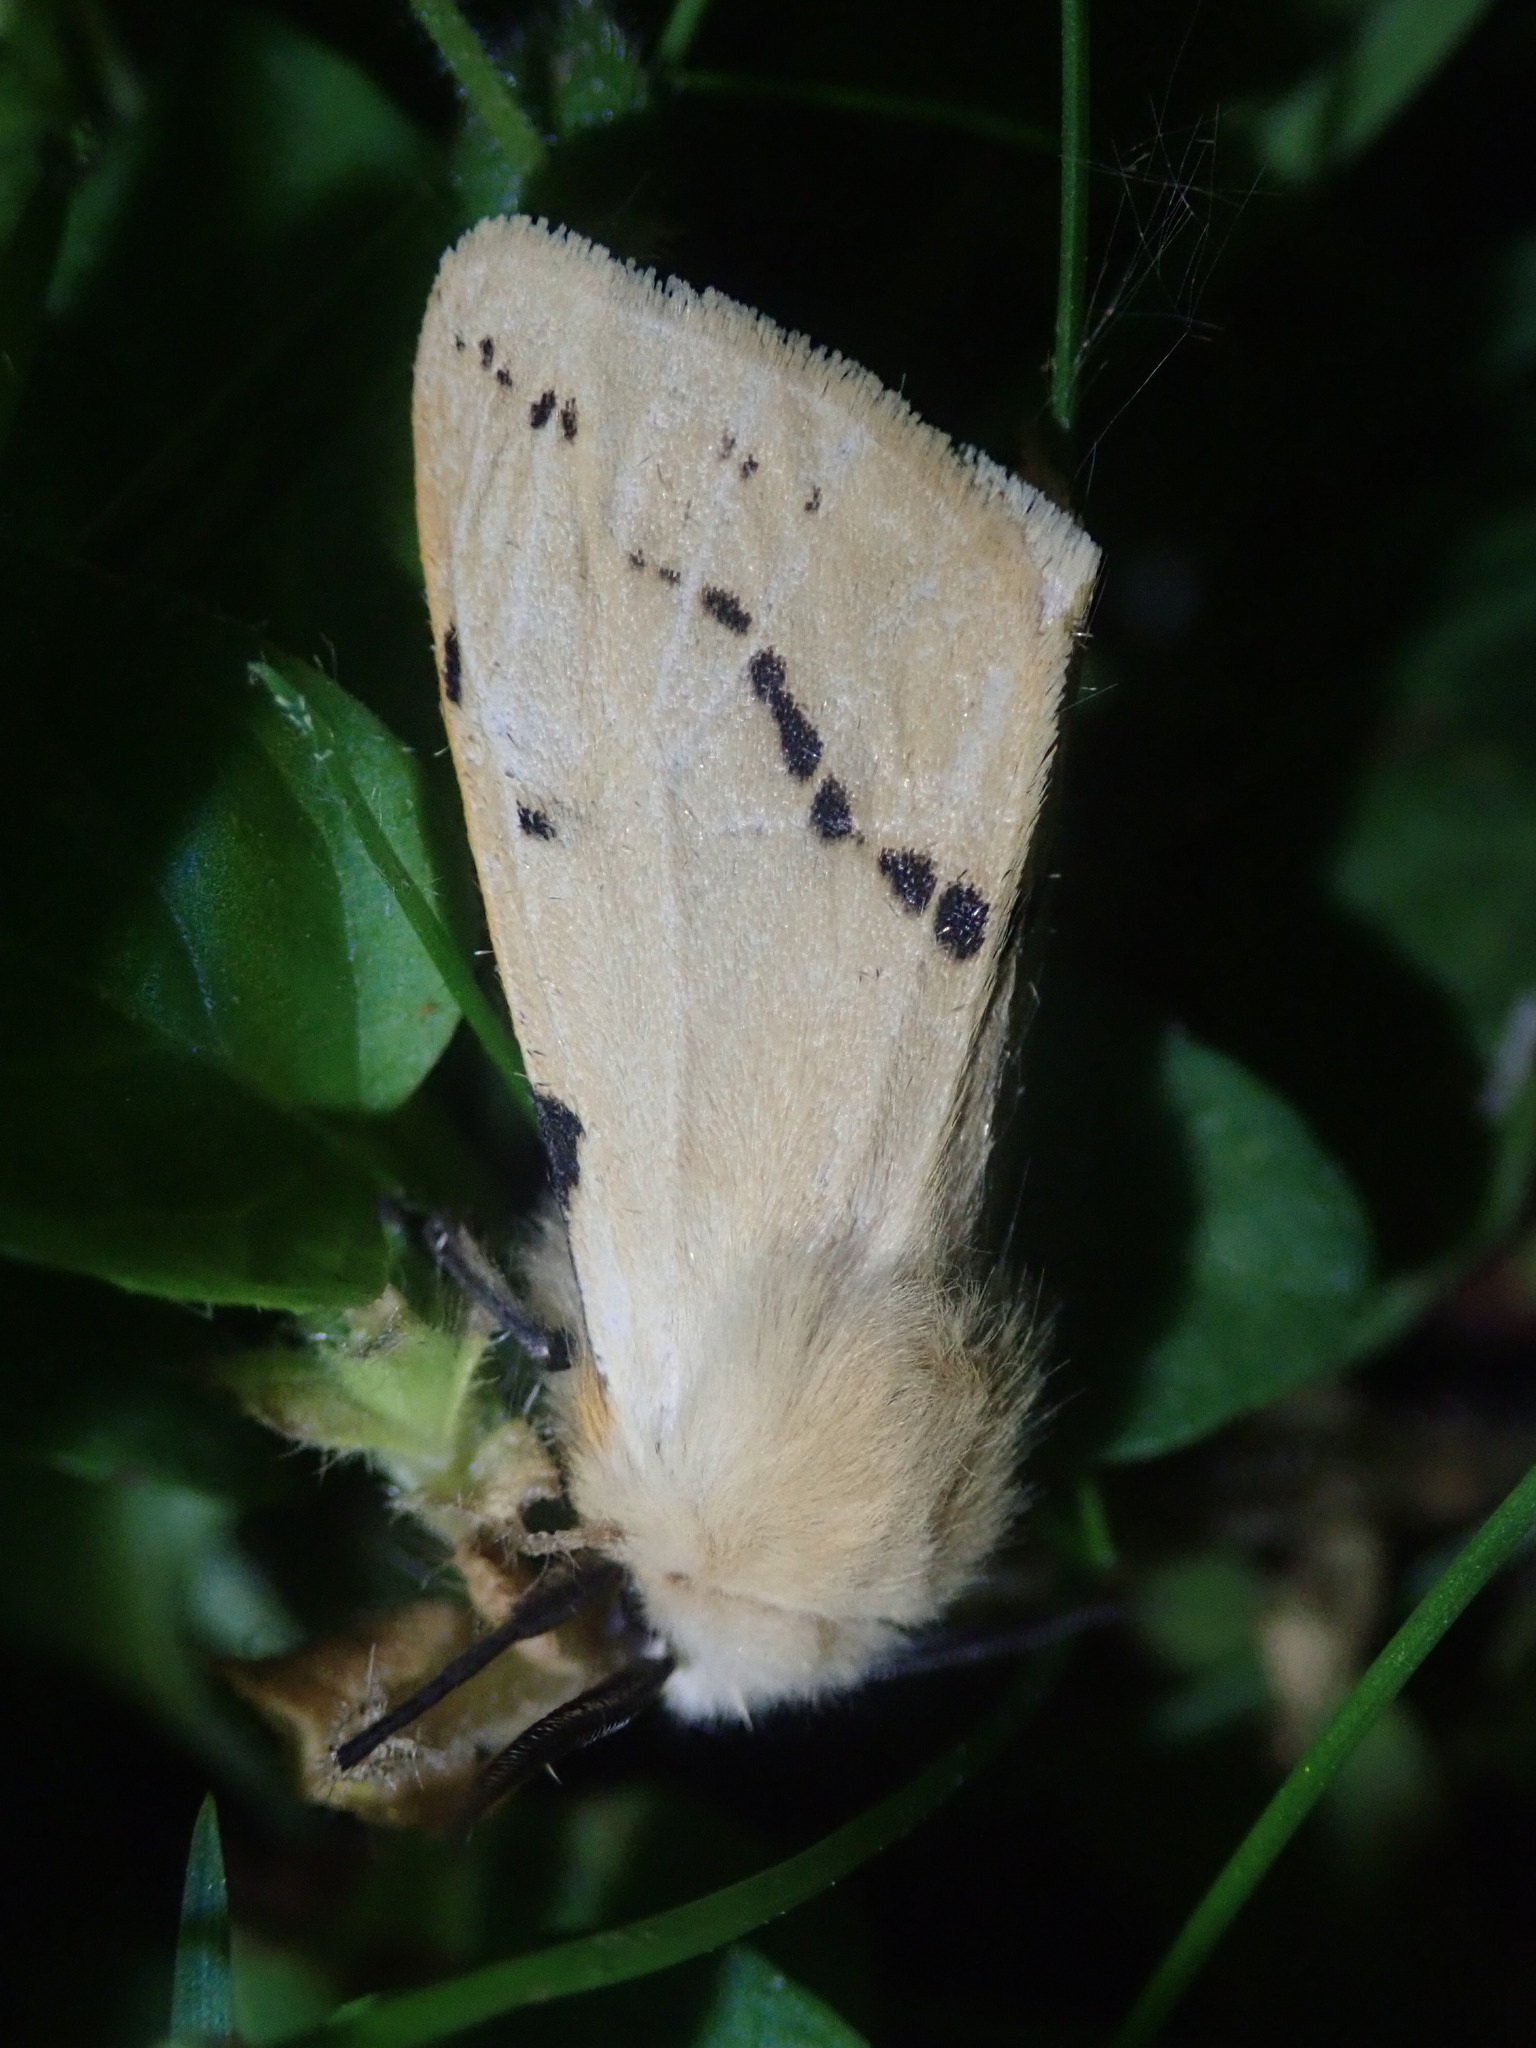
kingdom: Animalia
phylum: Arthropoda
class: Insecta
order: Lepidoptera
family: Erebidae
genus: Spilarctia
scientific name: Spilarctia lutea
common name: Buff ermine
